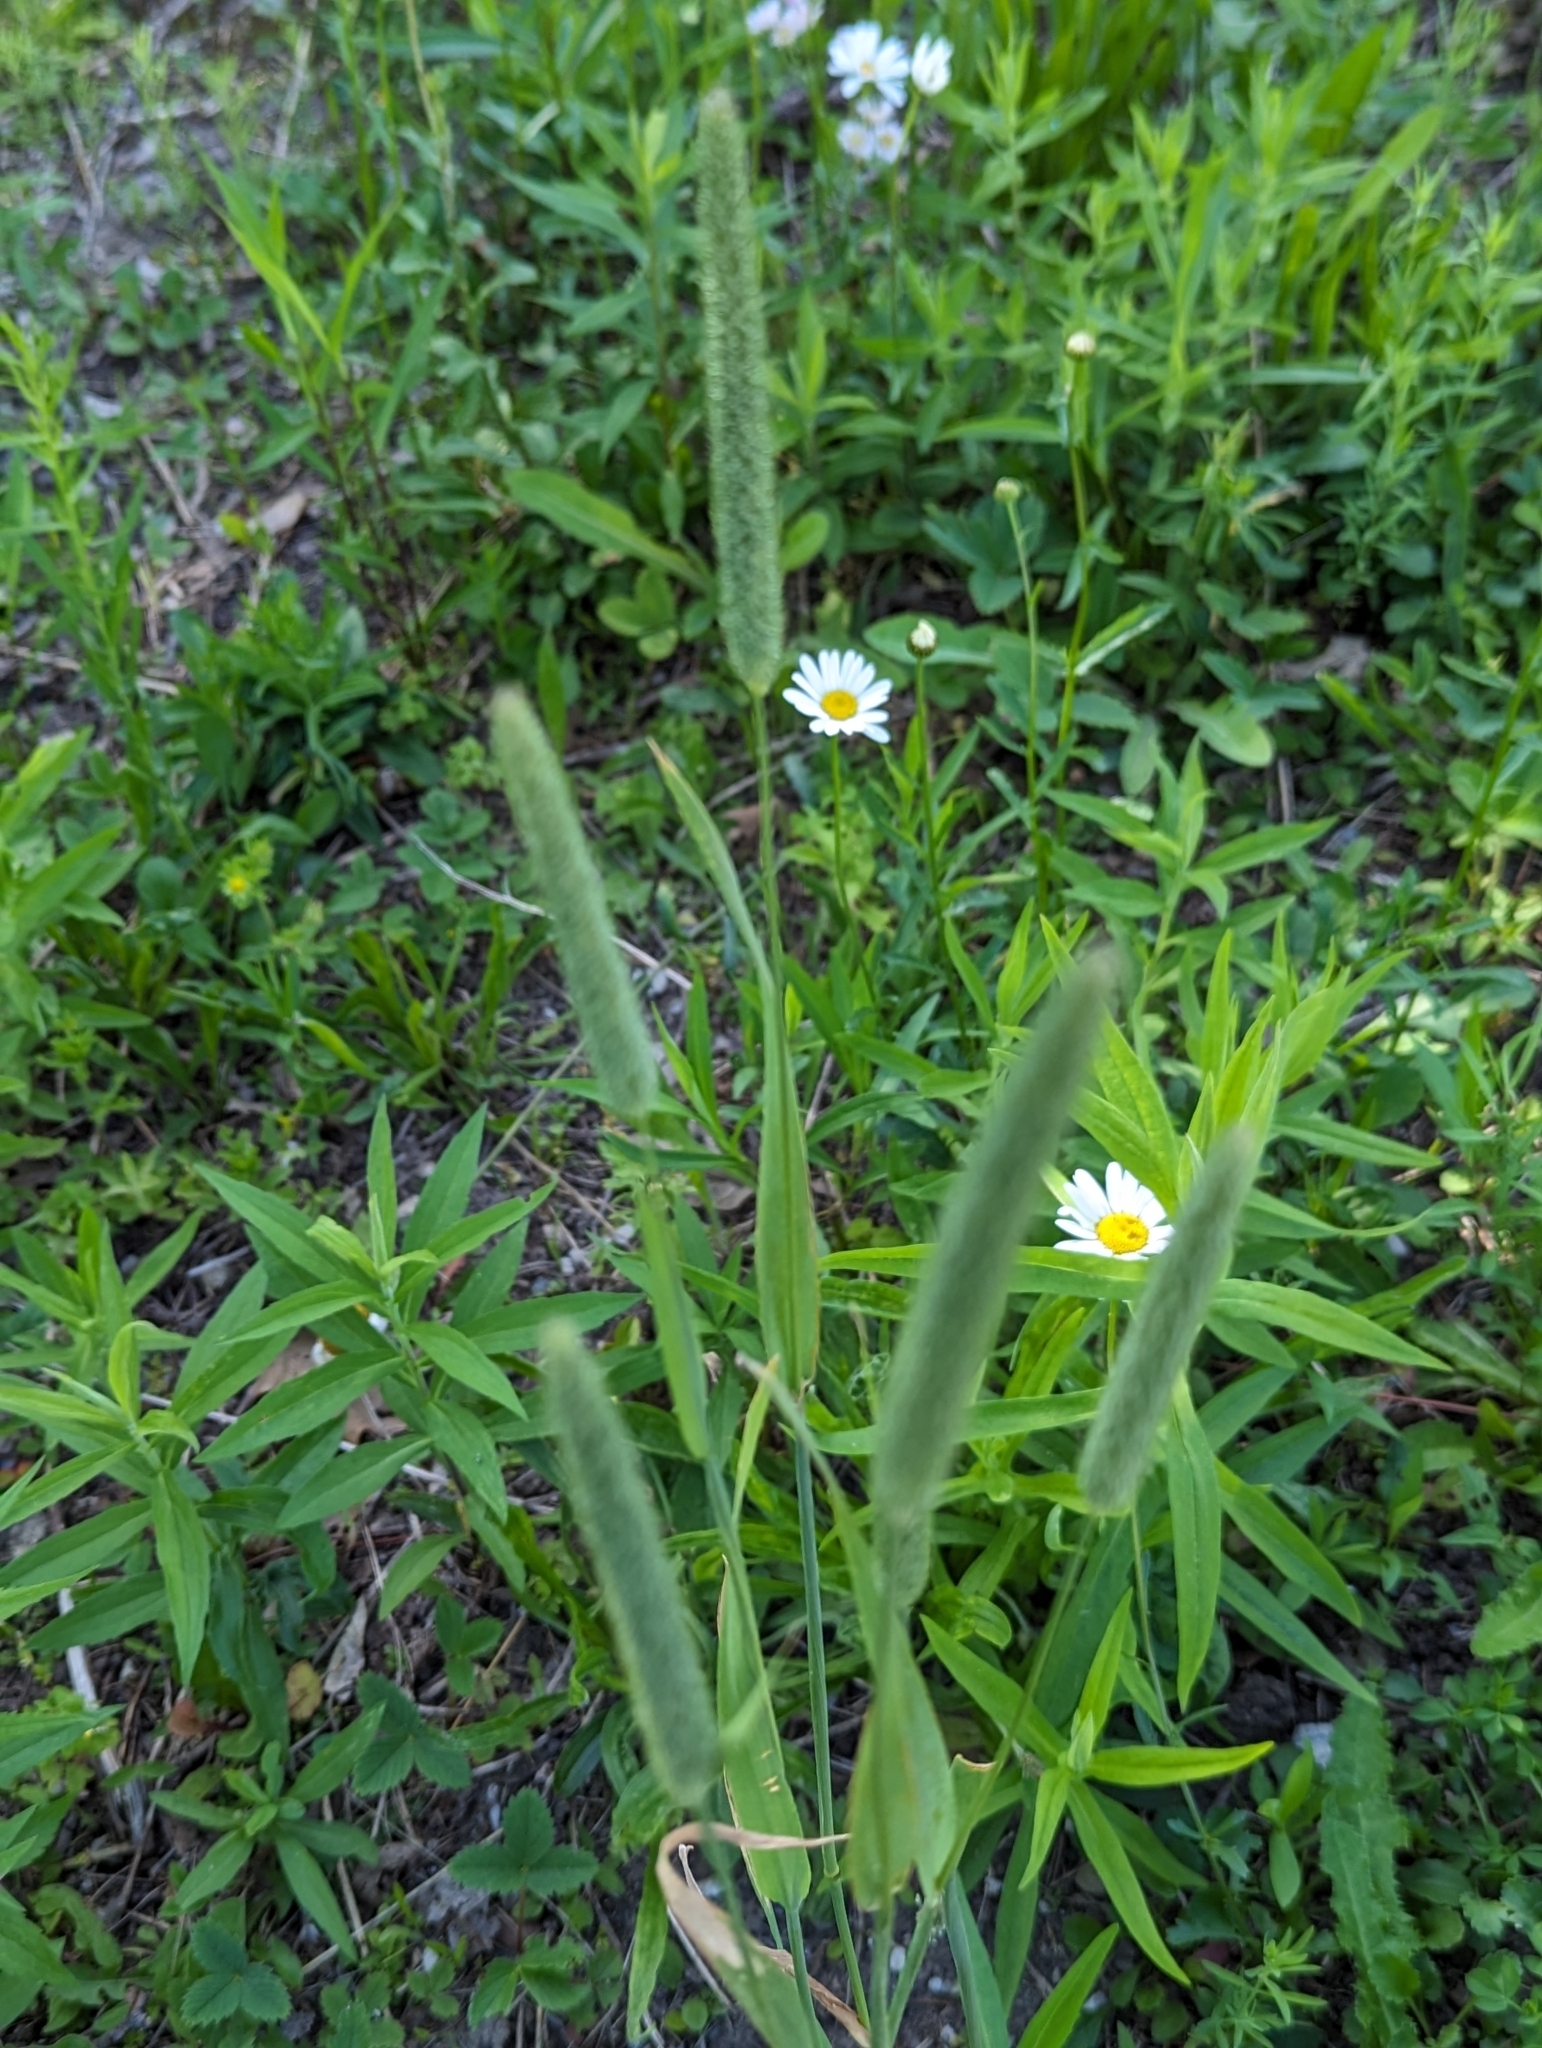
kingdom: Plantae
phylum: Tracheophyta
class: Liliopsida
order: Poales
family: Poaceae
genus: Phleum
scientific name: Phleum pratense
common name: Timothy grass
